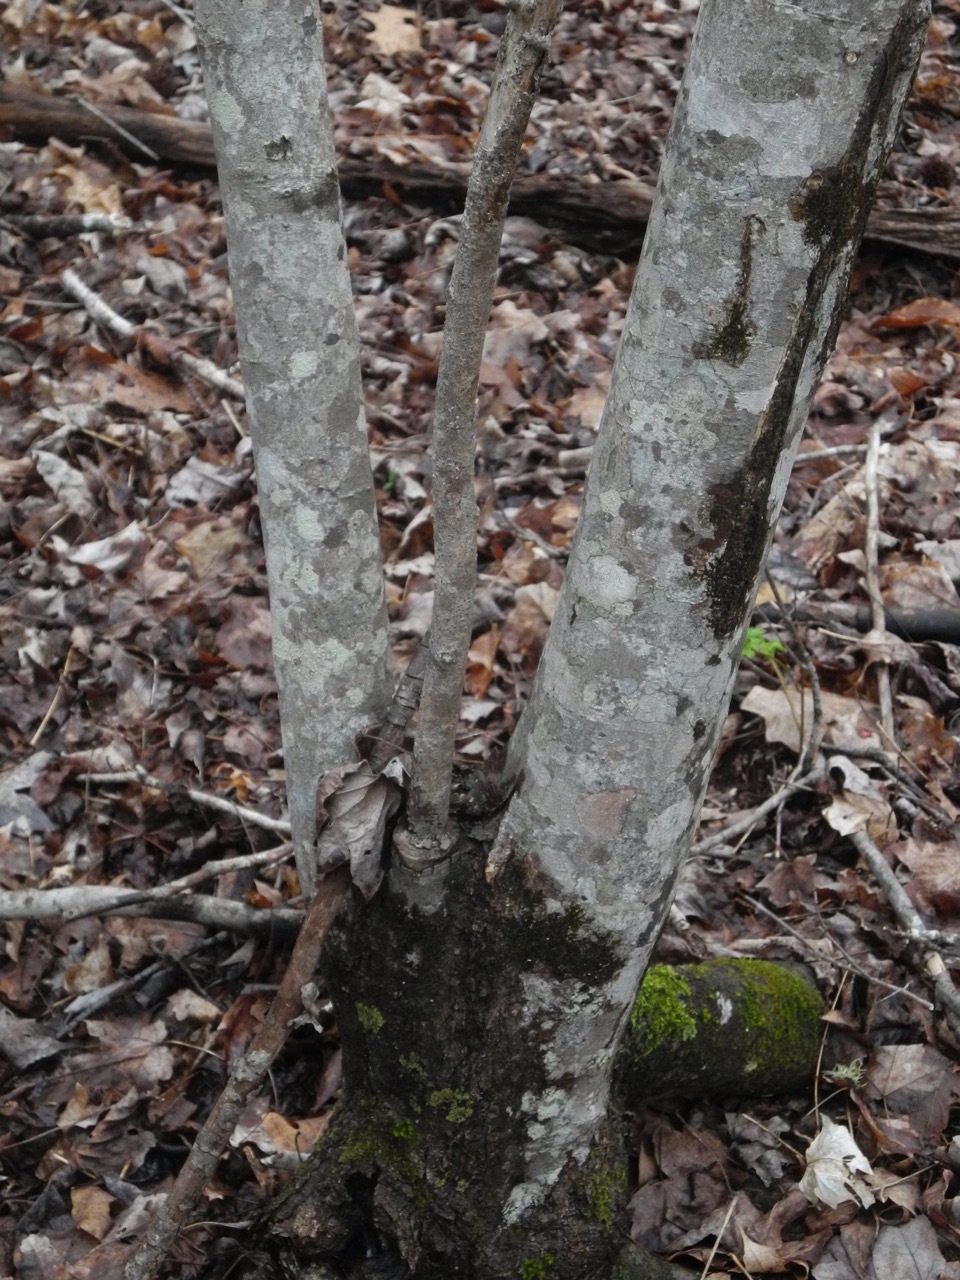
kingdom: Plantae
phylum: Tracheophyta
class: Magnoliopsida
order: Sapindales
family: Sapindaceae
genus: Acer
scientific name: Acer freemanii
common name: Freeman maple
